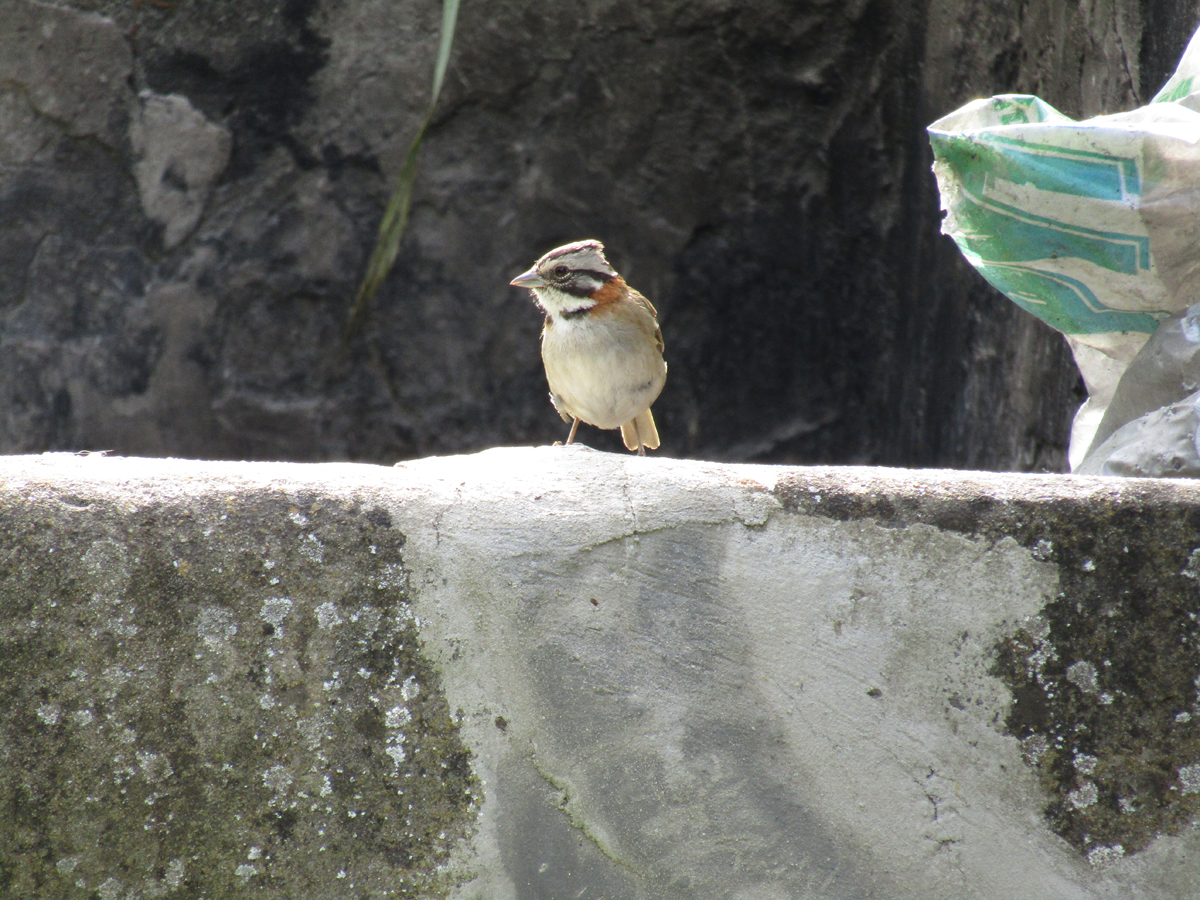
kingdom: Animalia
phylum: Chordata
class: Aves
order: Passeriformes
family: Passerellidae
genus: Zonotrichia
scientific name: Zonotrichia capensis
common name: Rufous-collared sparrow
